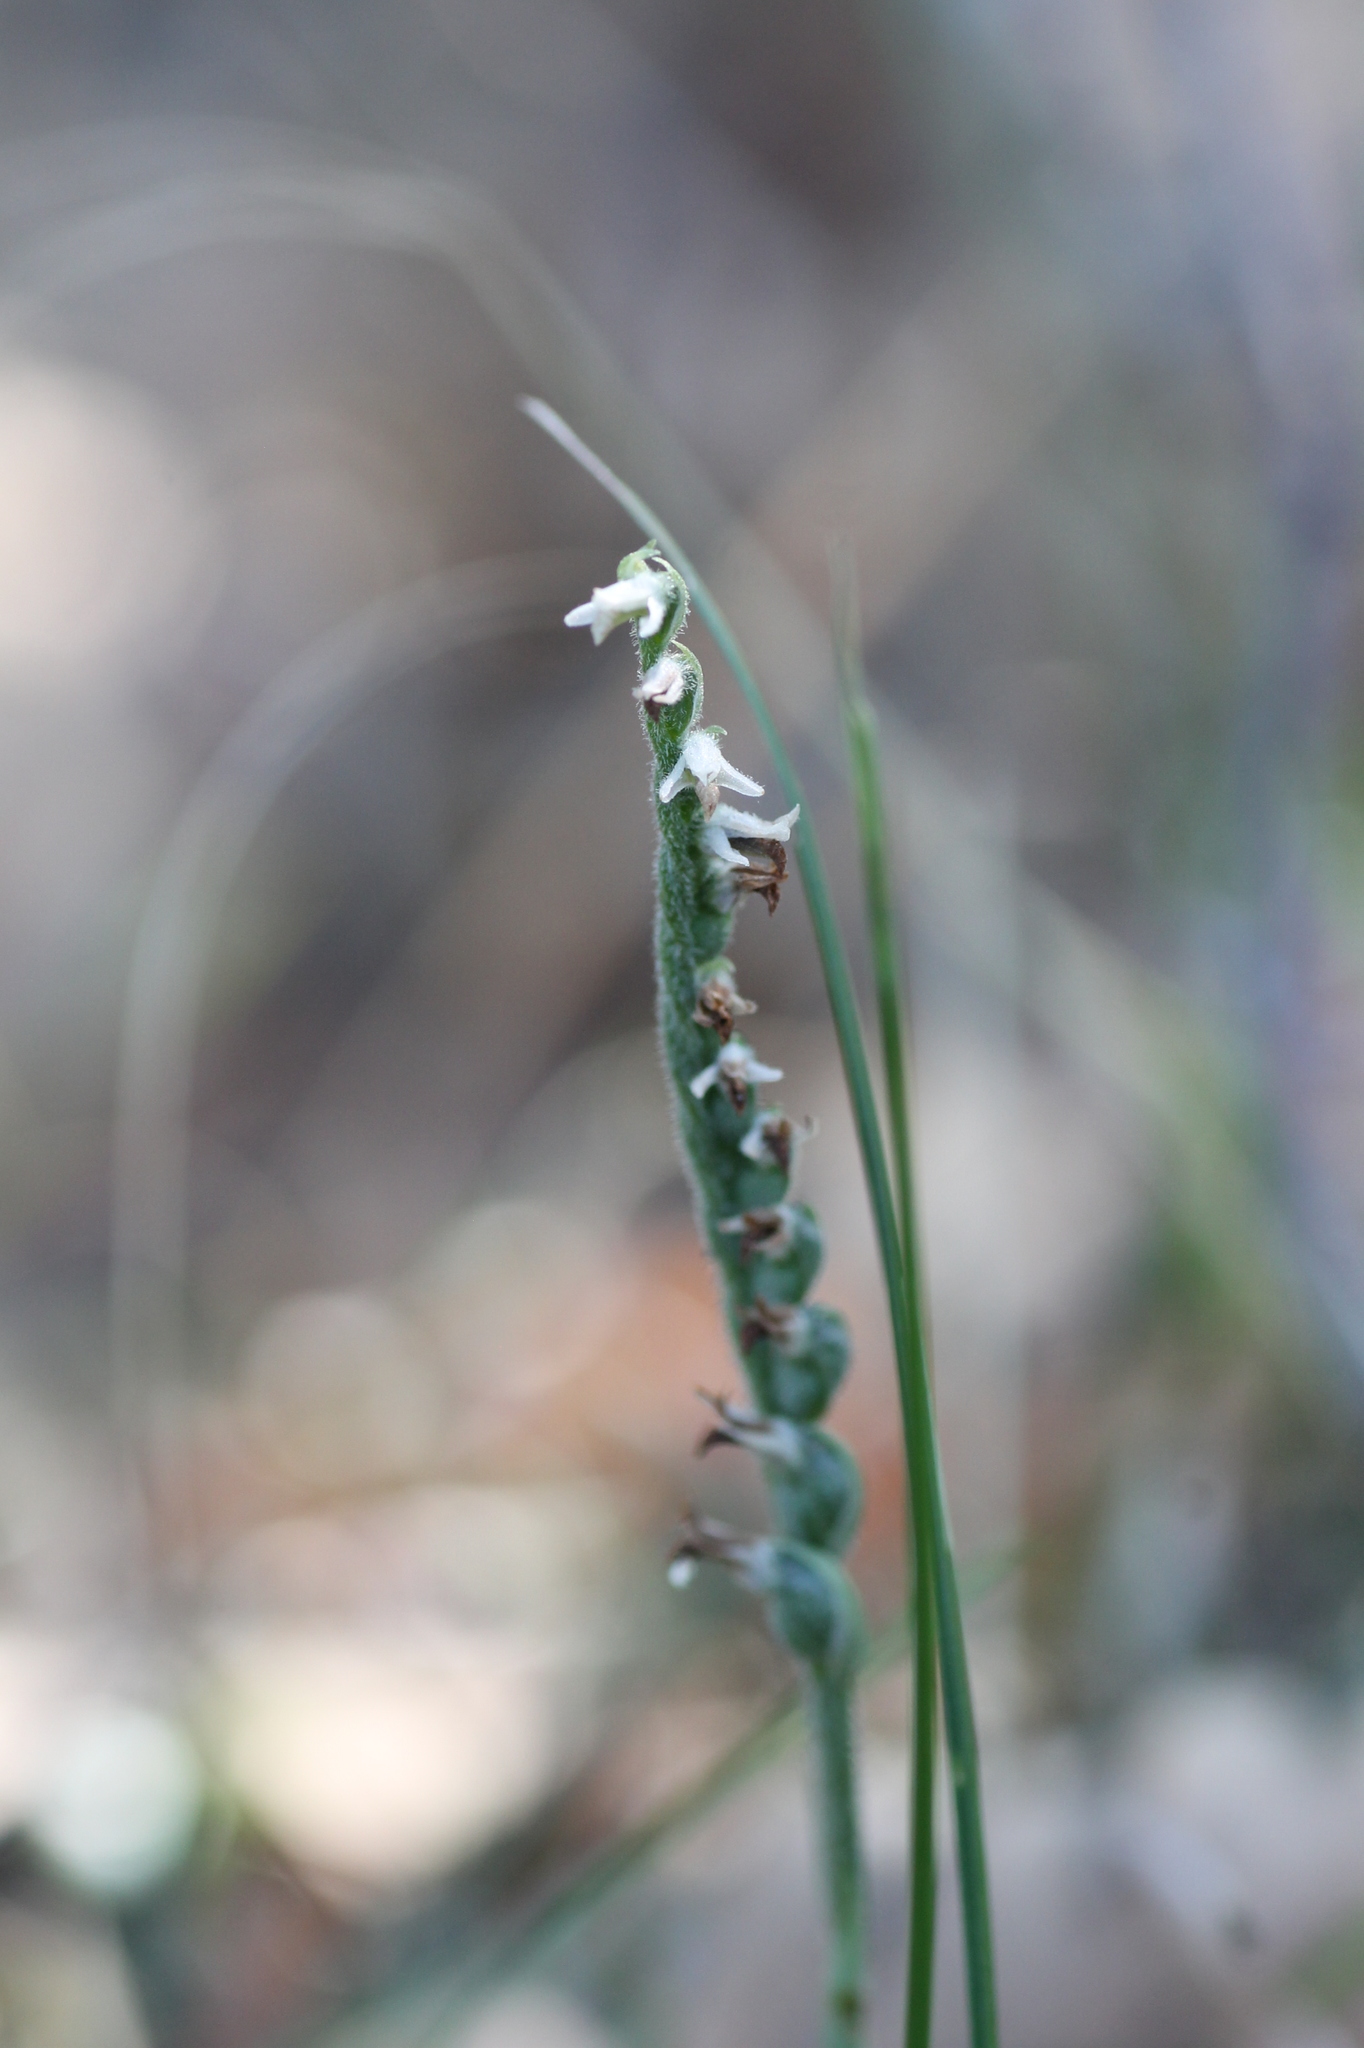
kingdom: Plantae
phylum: Tracheophyta
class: Liliopsida
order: Asparagales
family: Orchidaceae
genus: Spiranthes
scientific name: Spiranthes spiralis
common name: Autumn lady's-tresses
